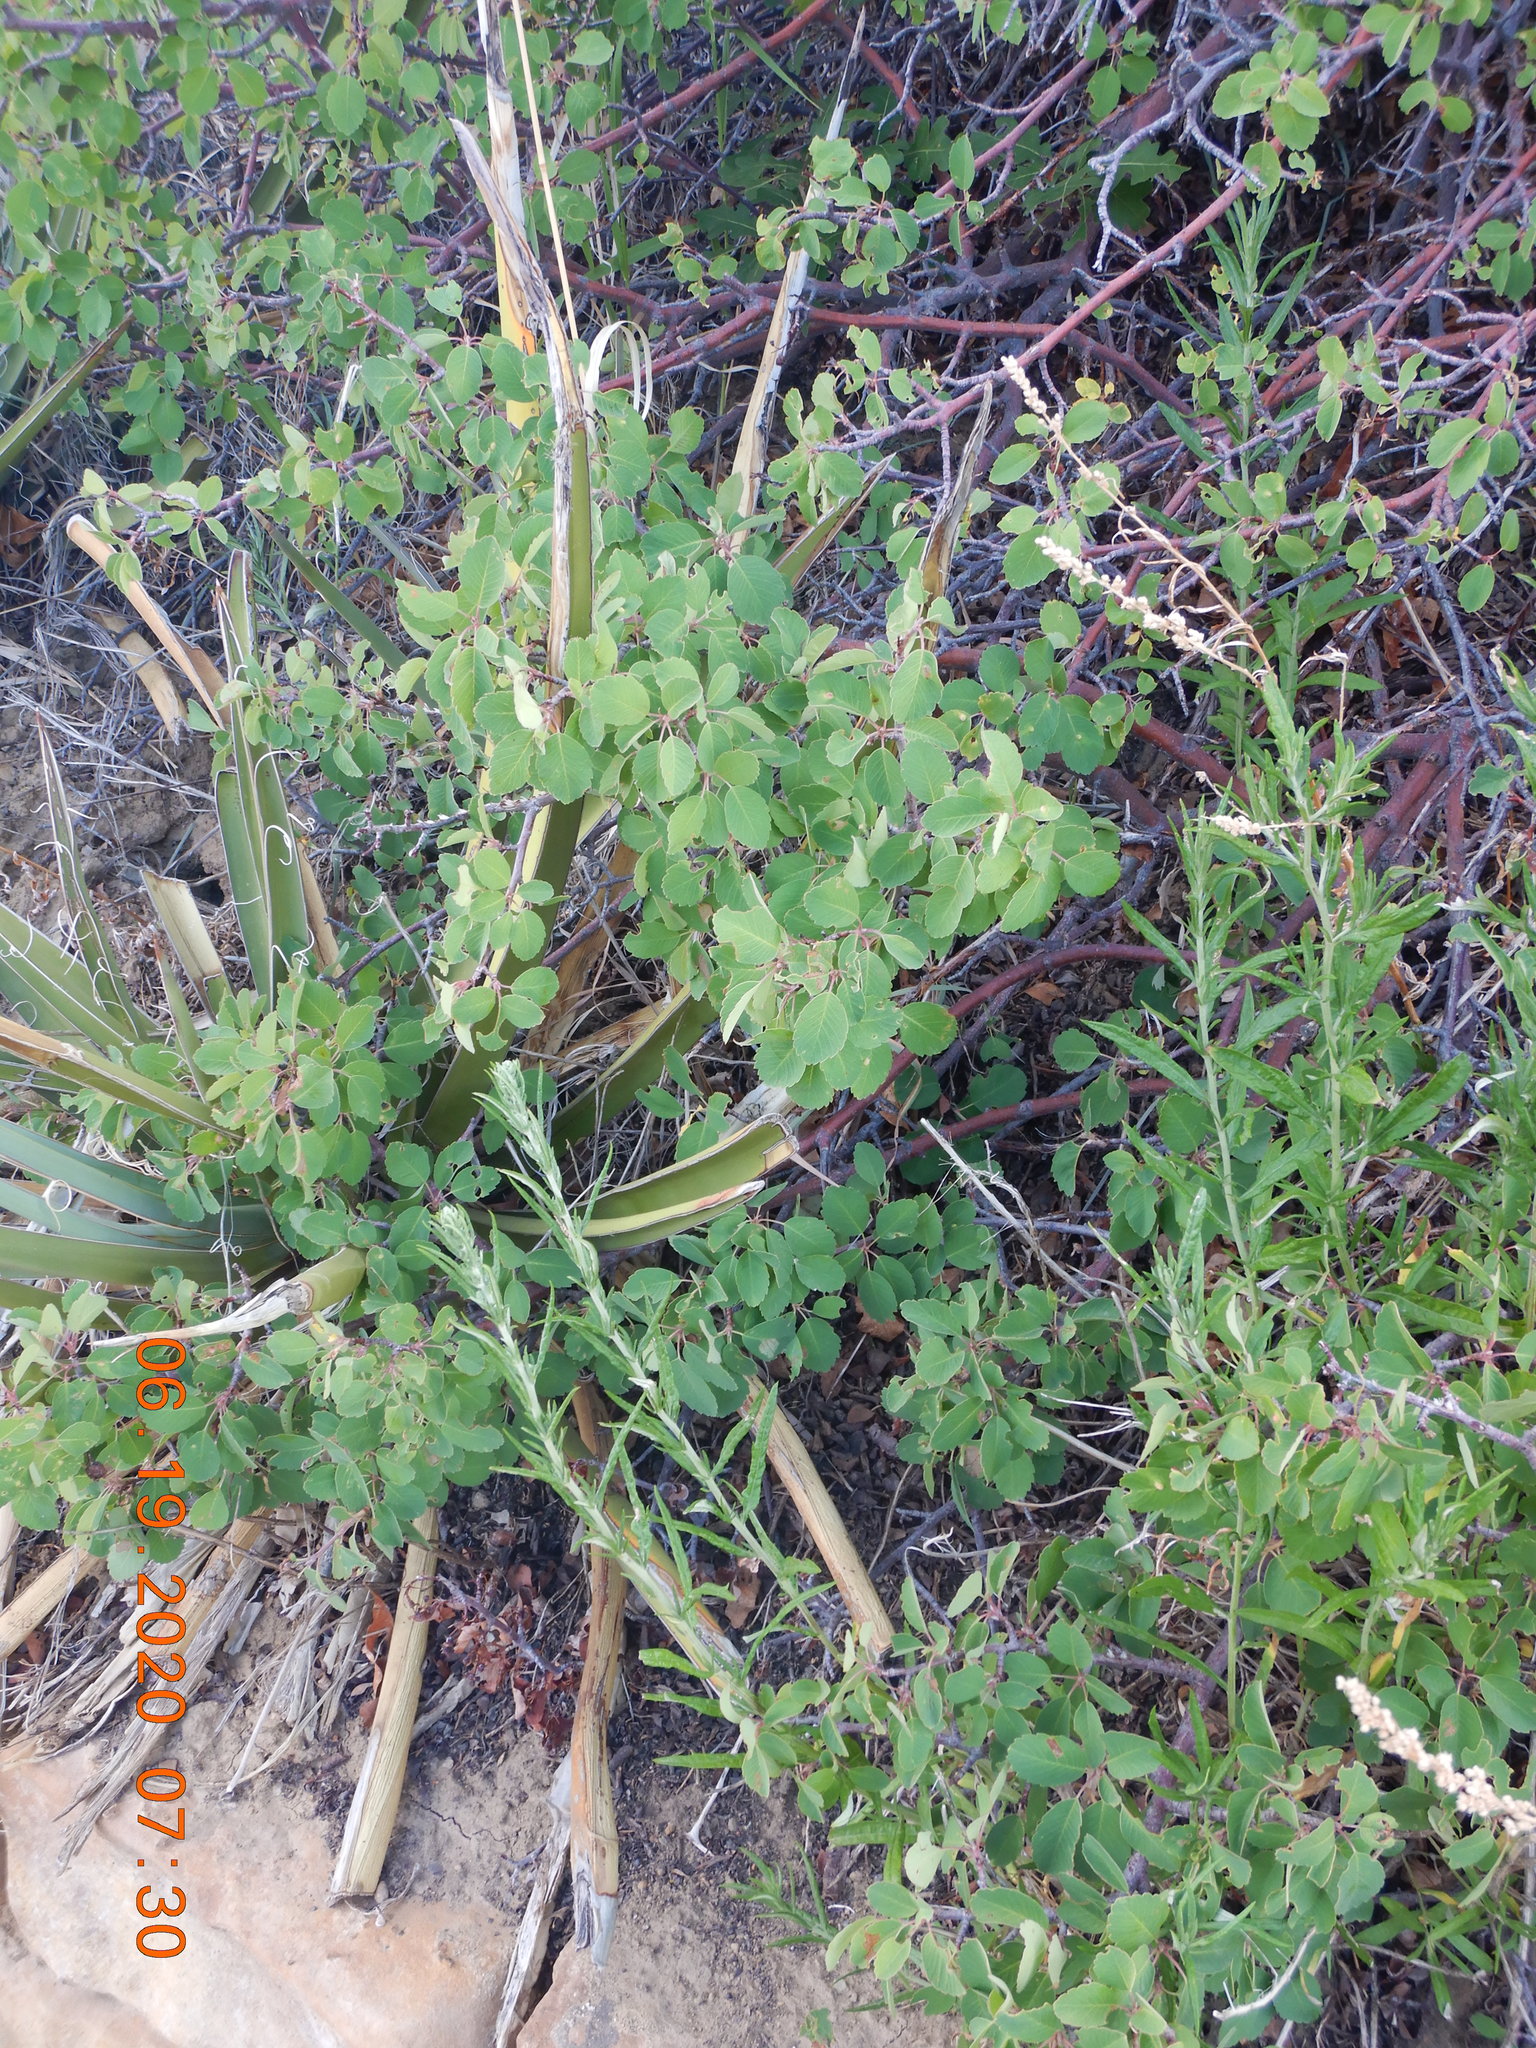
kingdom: Plantae
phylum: Tracheophyta
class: Magnoliopsida
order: Rosales
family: Rosaceae
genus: Amelanchier
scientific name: Amelanchier utahensis
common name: Utah serviceberry
